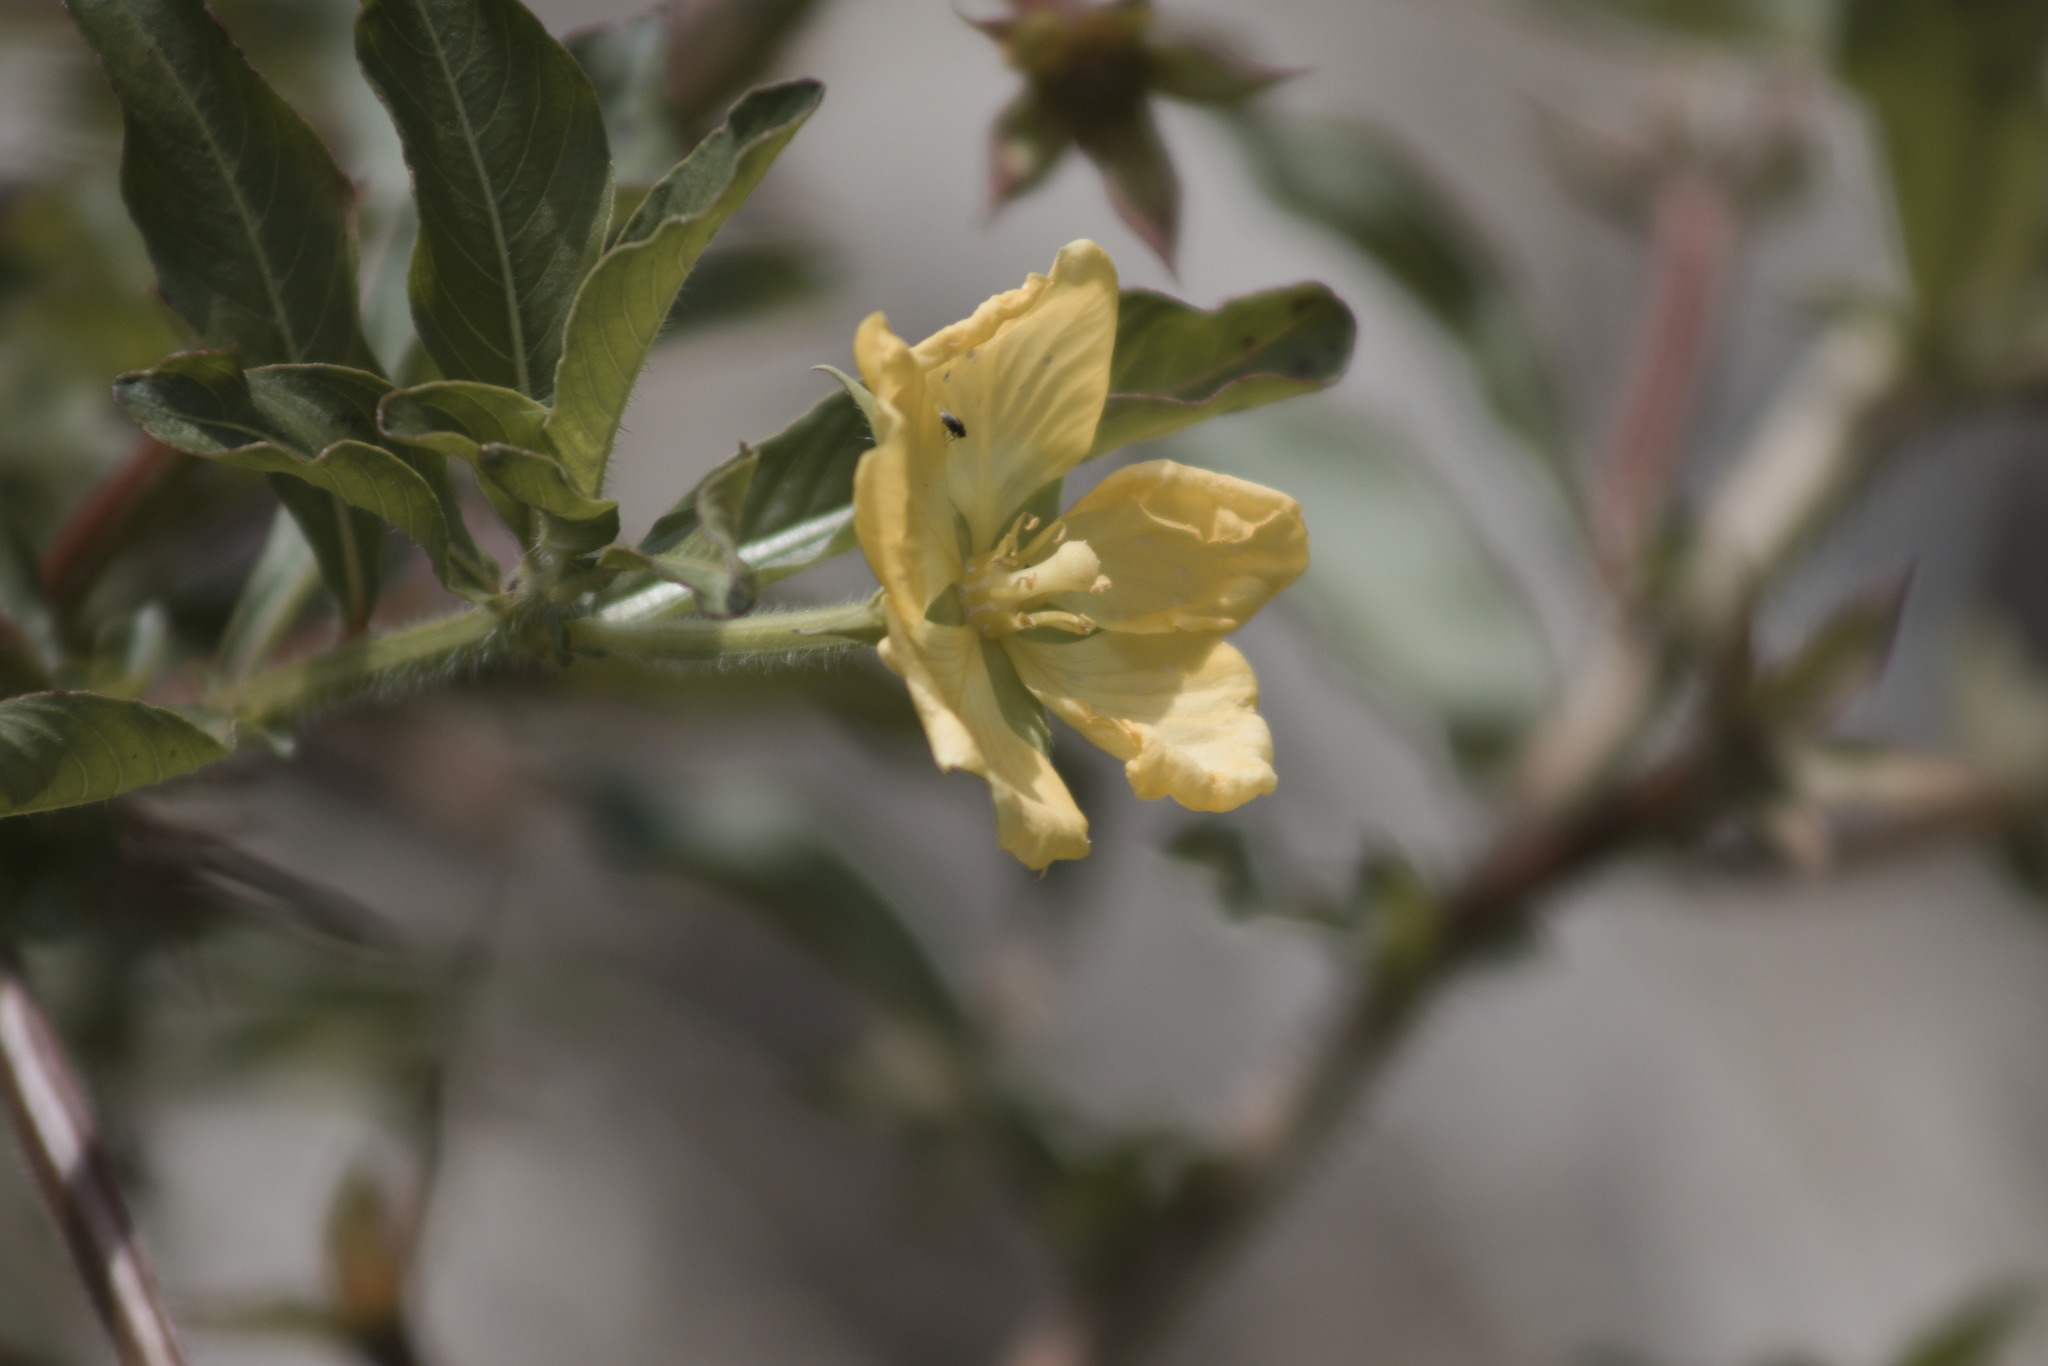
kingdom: Plantae
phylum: Tracheophyta
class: Magnoliopsida
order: Myrtales
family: Onagraceae
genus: Ludwigia
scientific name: Ludwigia leptocarpa
